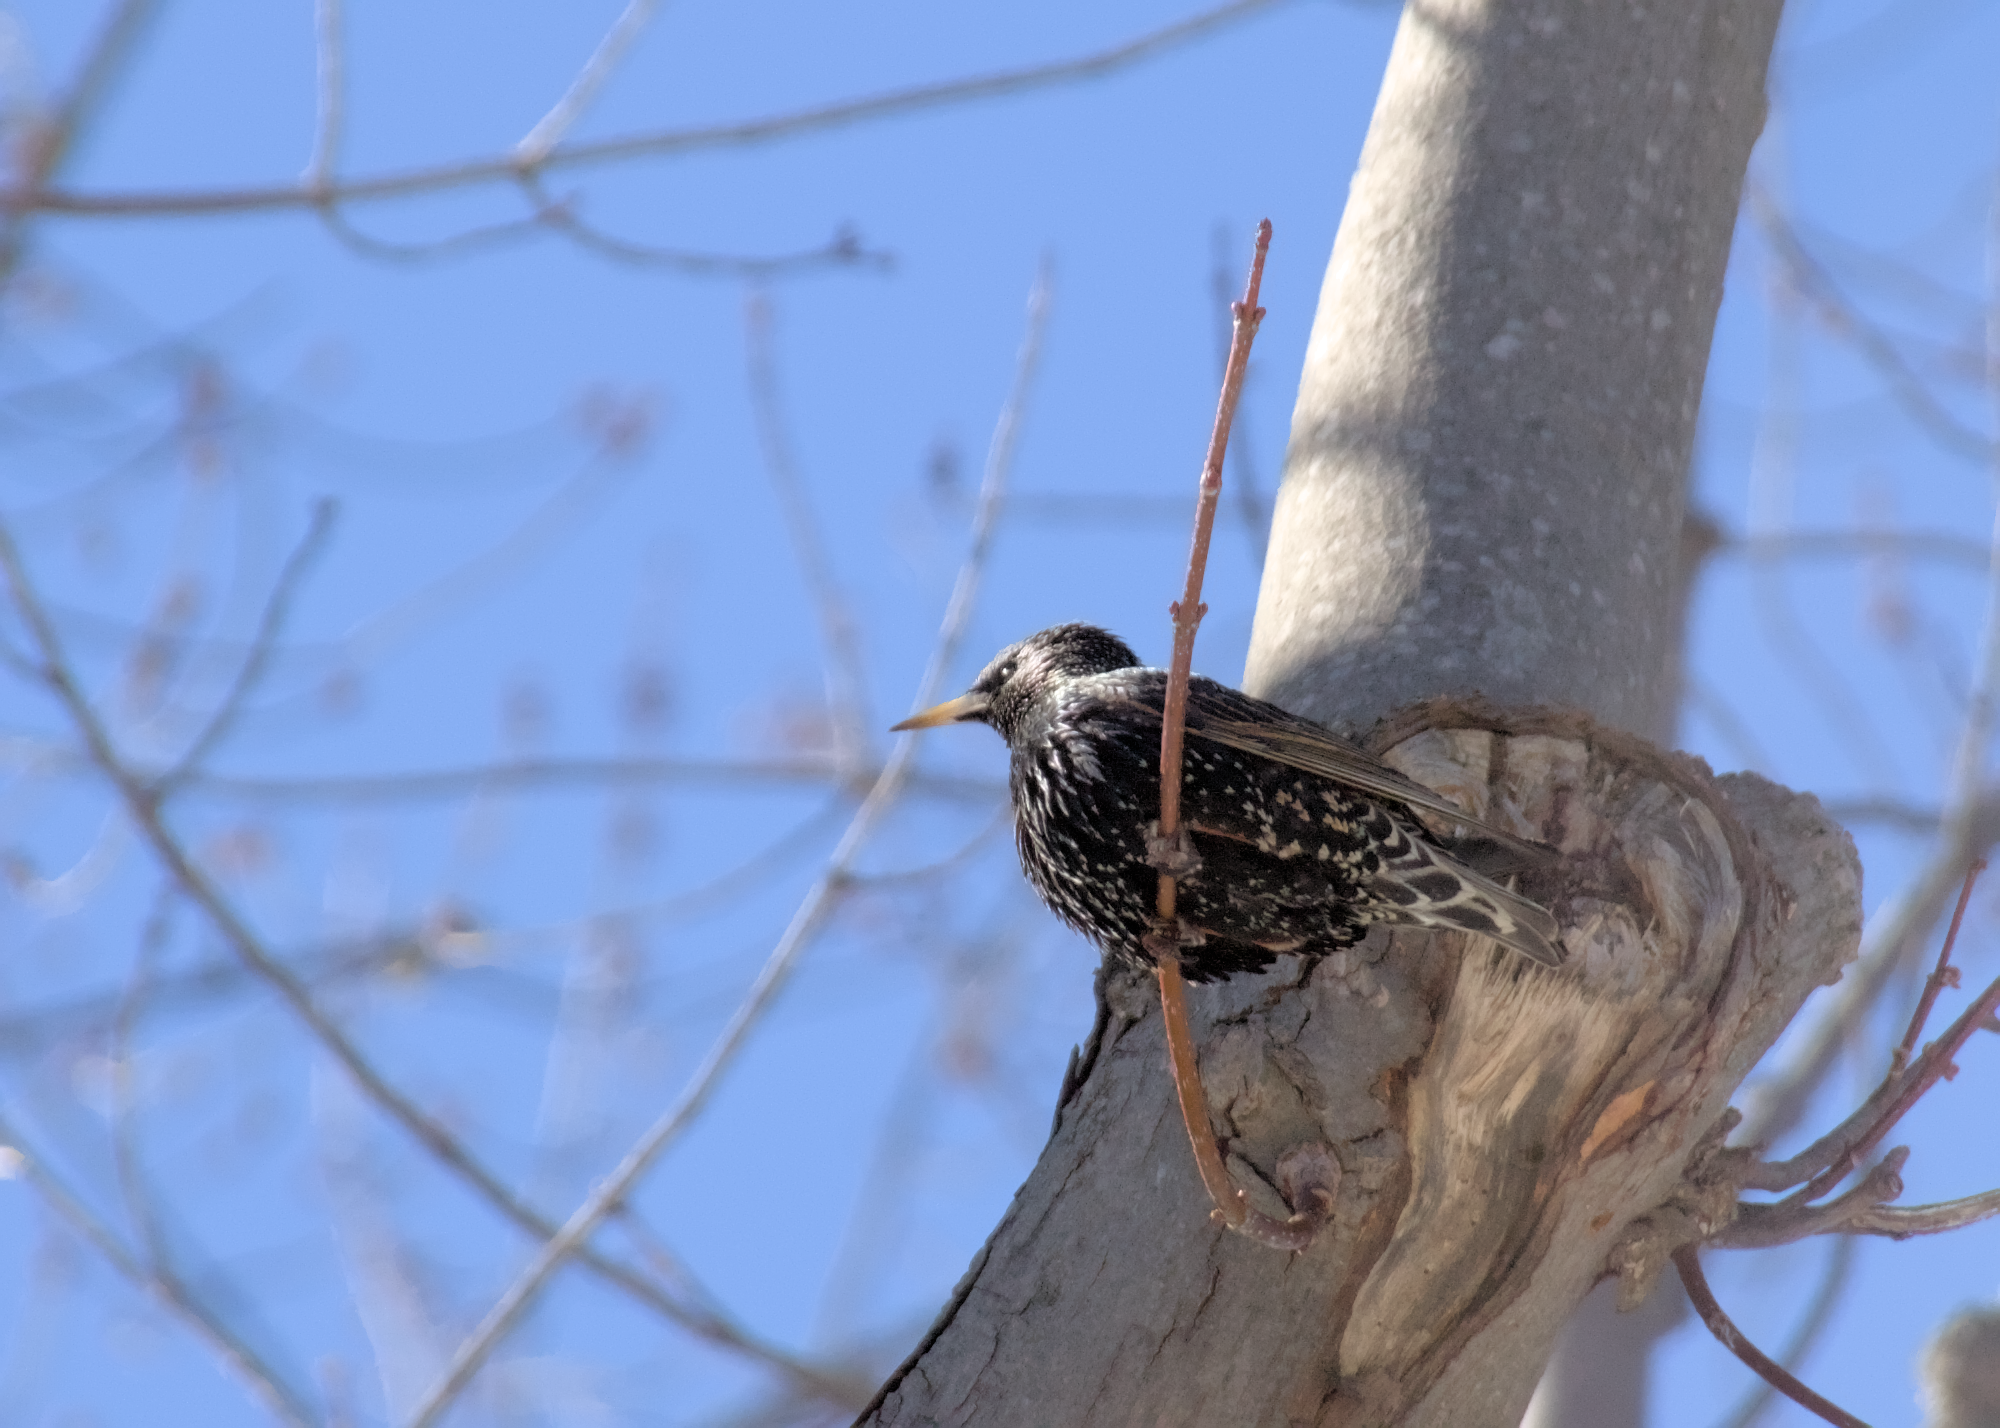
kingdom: Animalia
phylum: Chordata
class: Aves
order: Passeriformes
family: Sturnidae
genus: Sturnus
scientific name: Sturnus vulgaris
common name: Common starling
